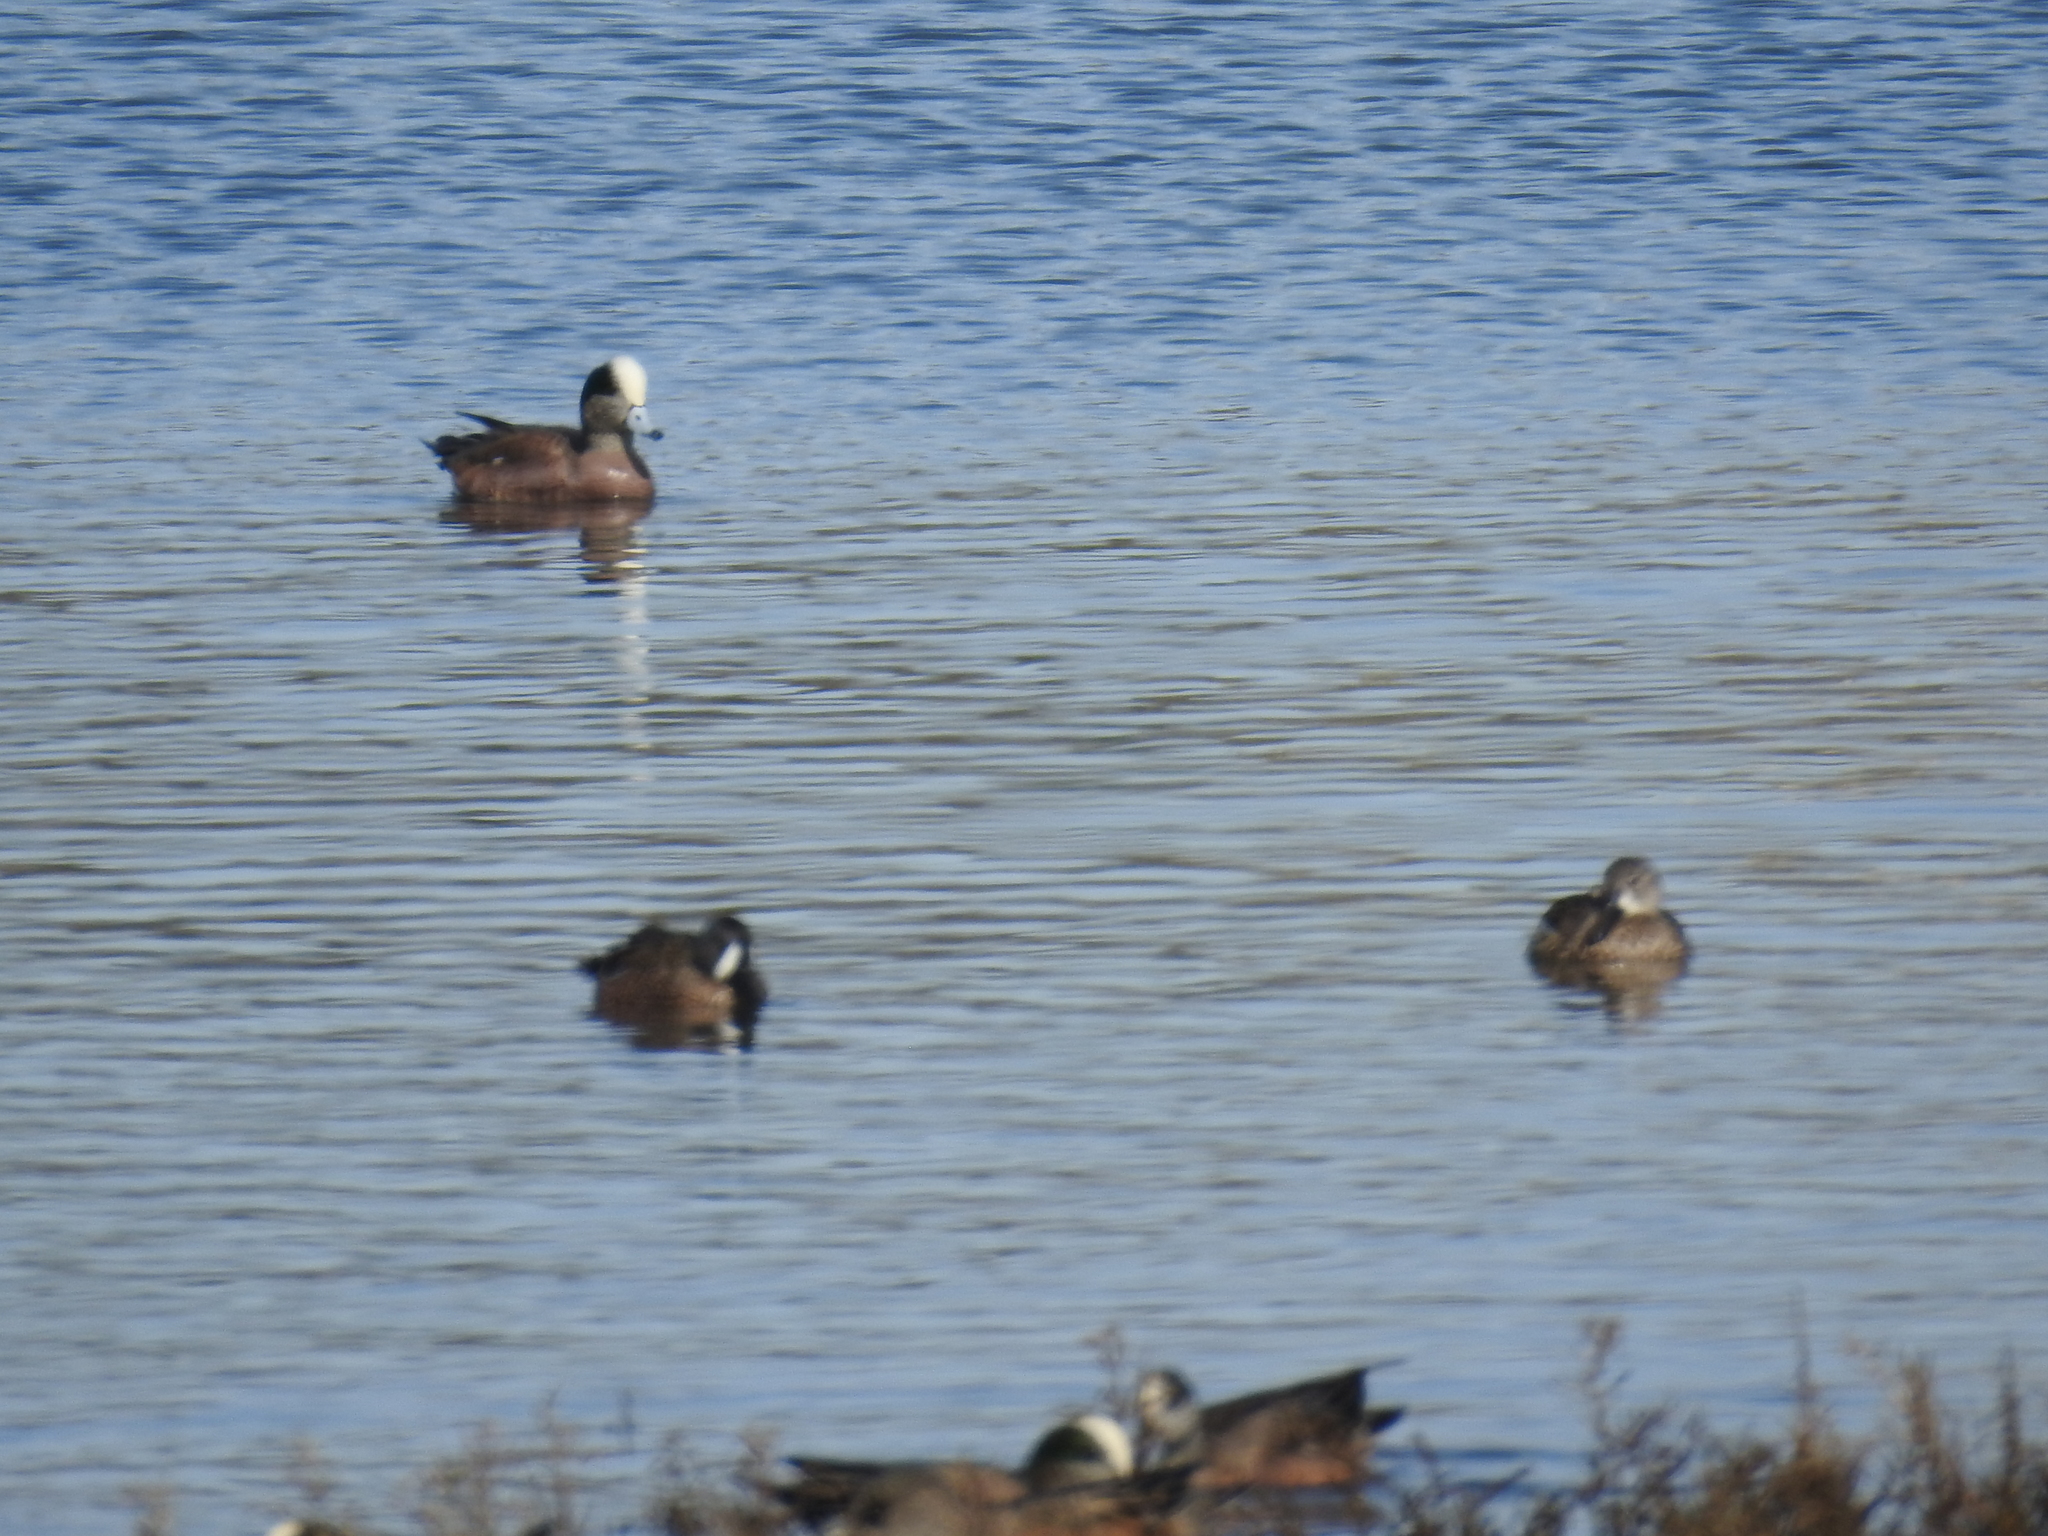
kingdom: Animalia
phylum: Chordata
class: Aves
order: Anseriformes
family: Anatidae
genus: Mareca
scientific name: Mareca americana
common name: American wigeon
